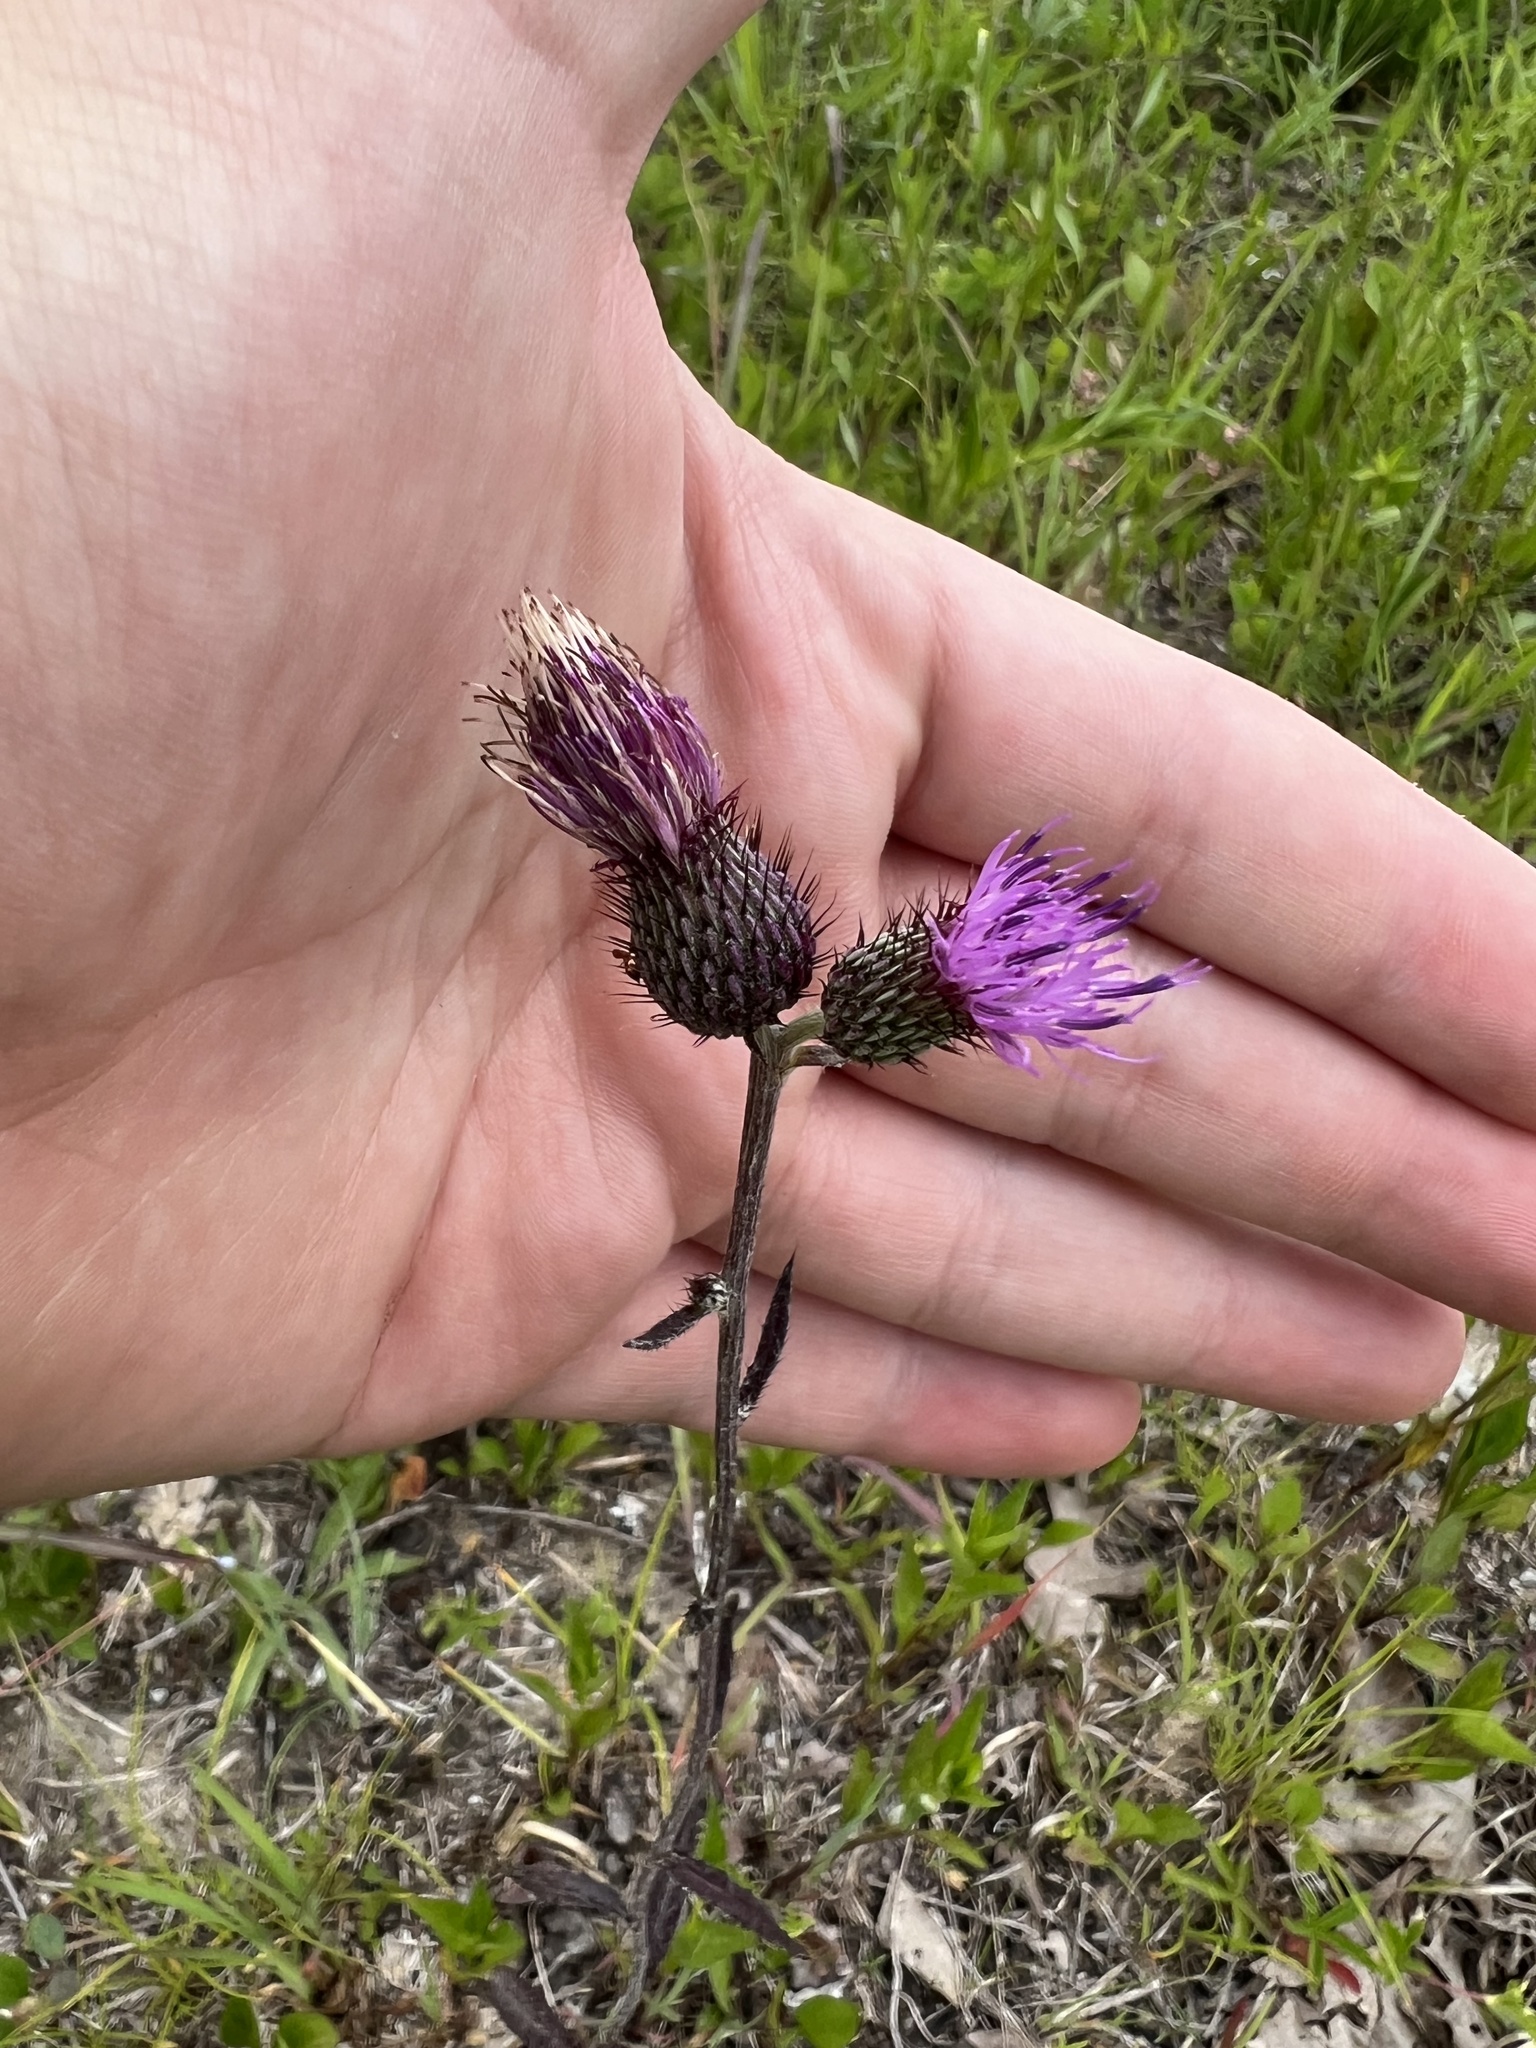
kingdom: Plantae
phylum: Tracheophyta
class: Magnoliopsida
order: Asterales
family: Asteraceae
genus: Cirsium
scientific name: Cirsium carolinianum
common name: Carolina thistle
